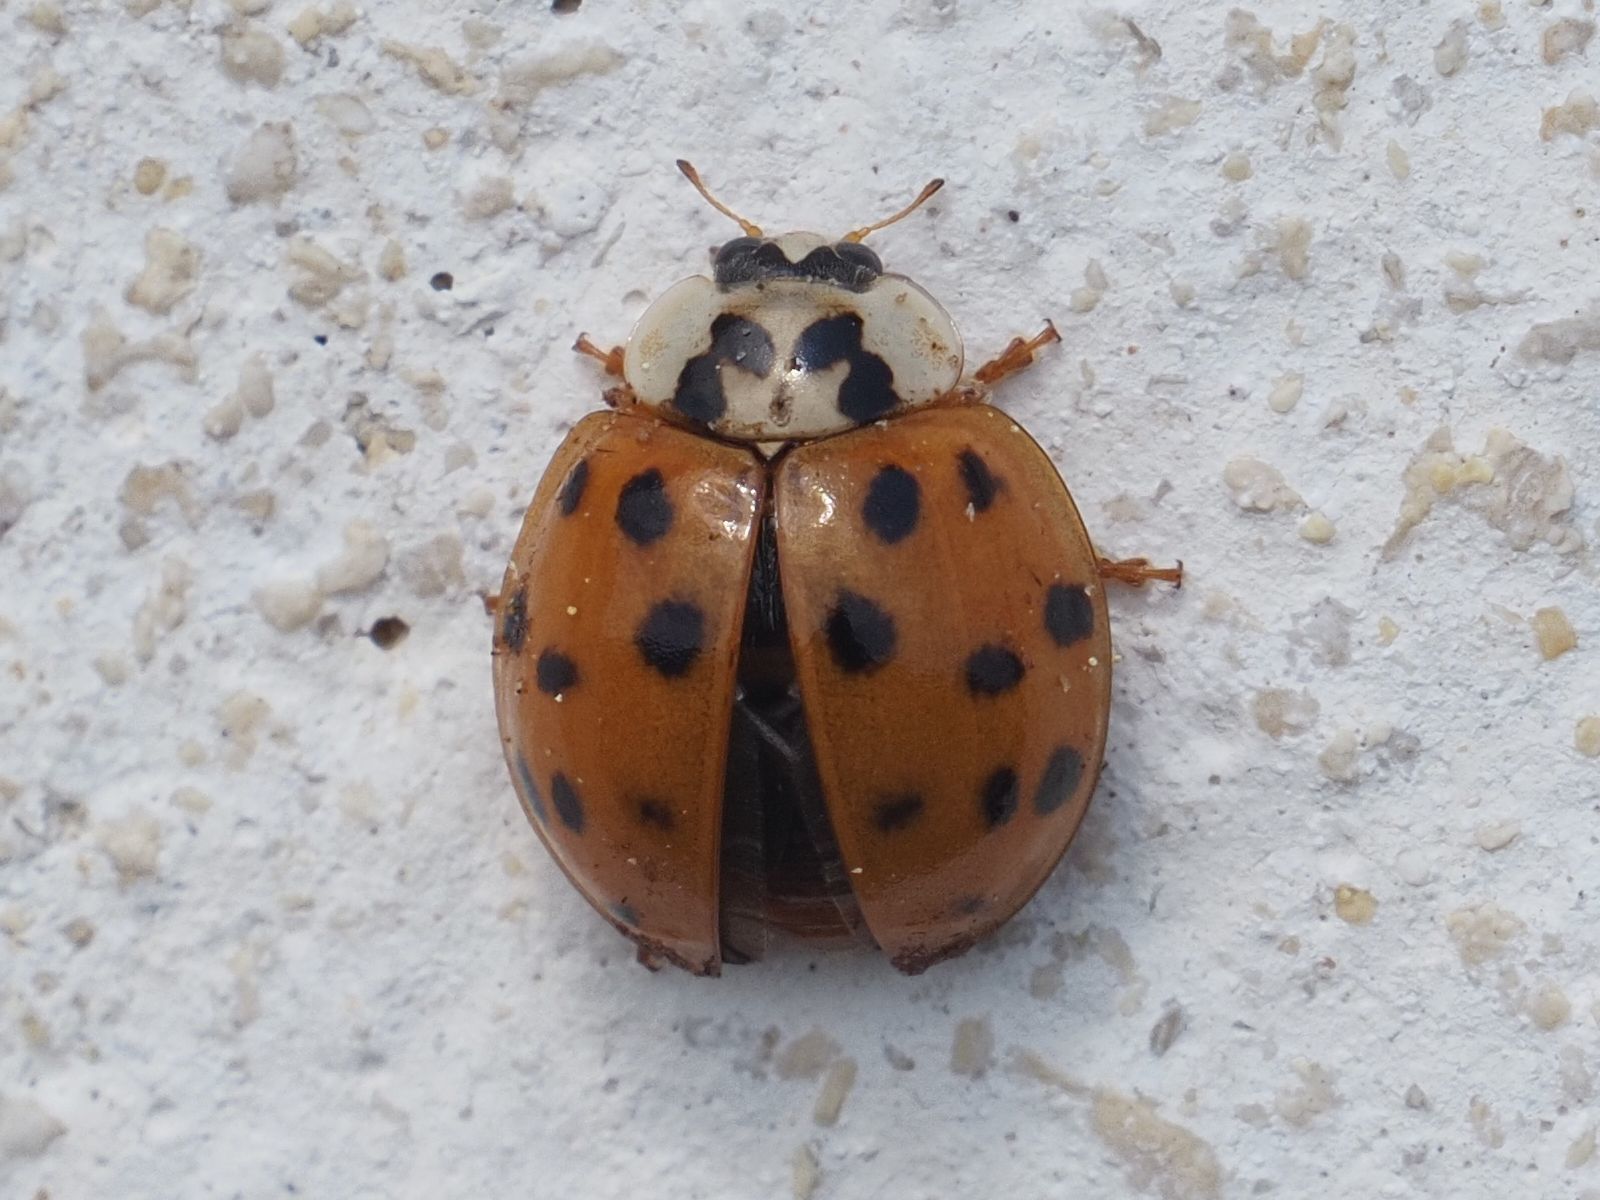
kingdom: Animalia
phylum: Arthropoda
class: Insecta
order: Coleoptera
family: Coccinellidae
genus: Harmonia
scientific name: Harmonia axyridis
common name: Harlequin ladybird
